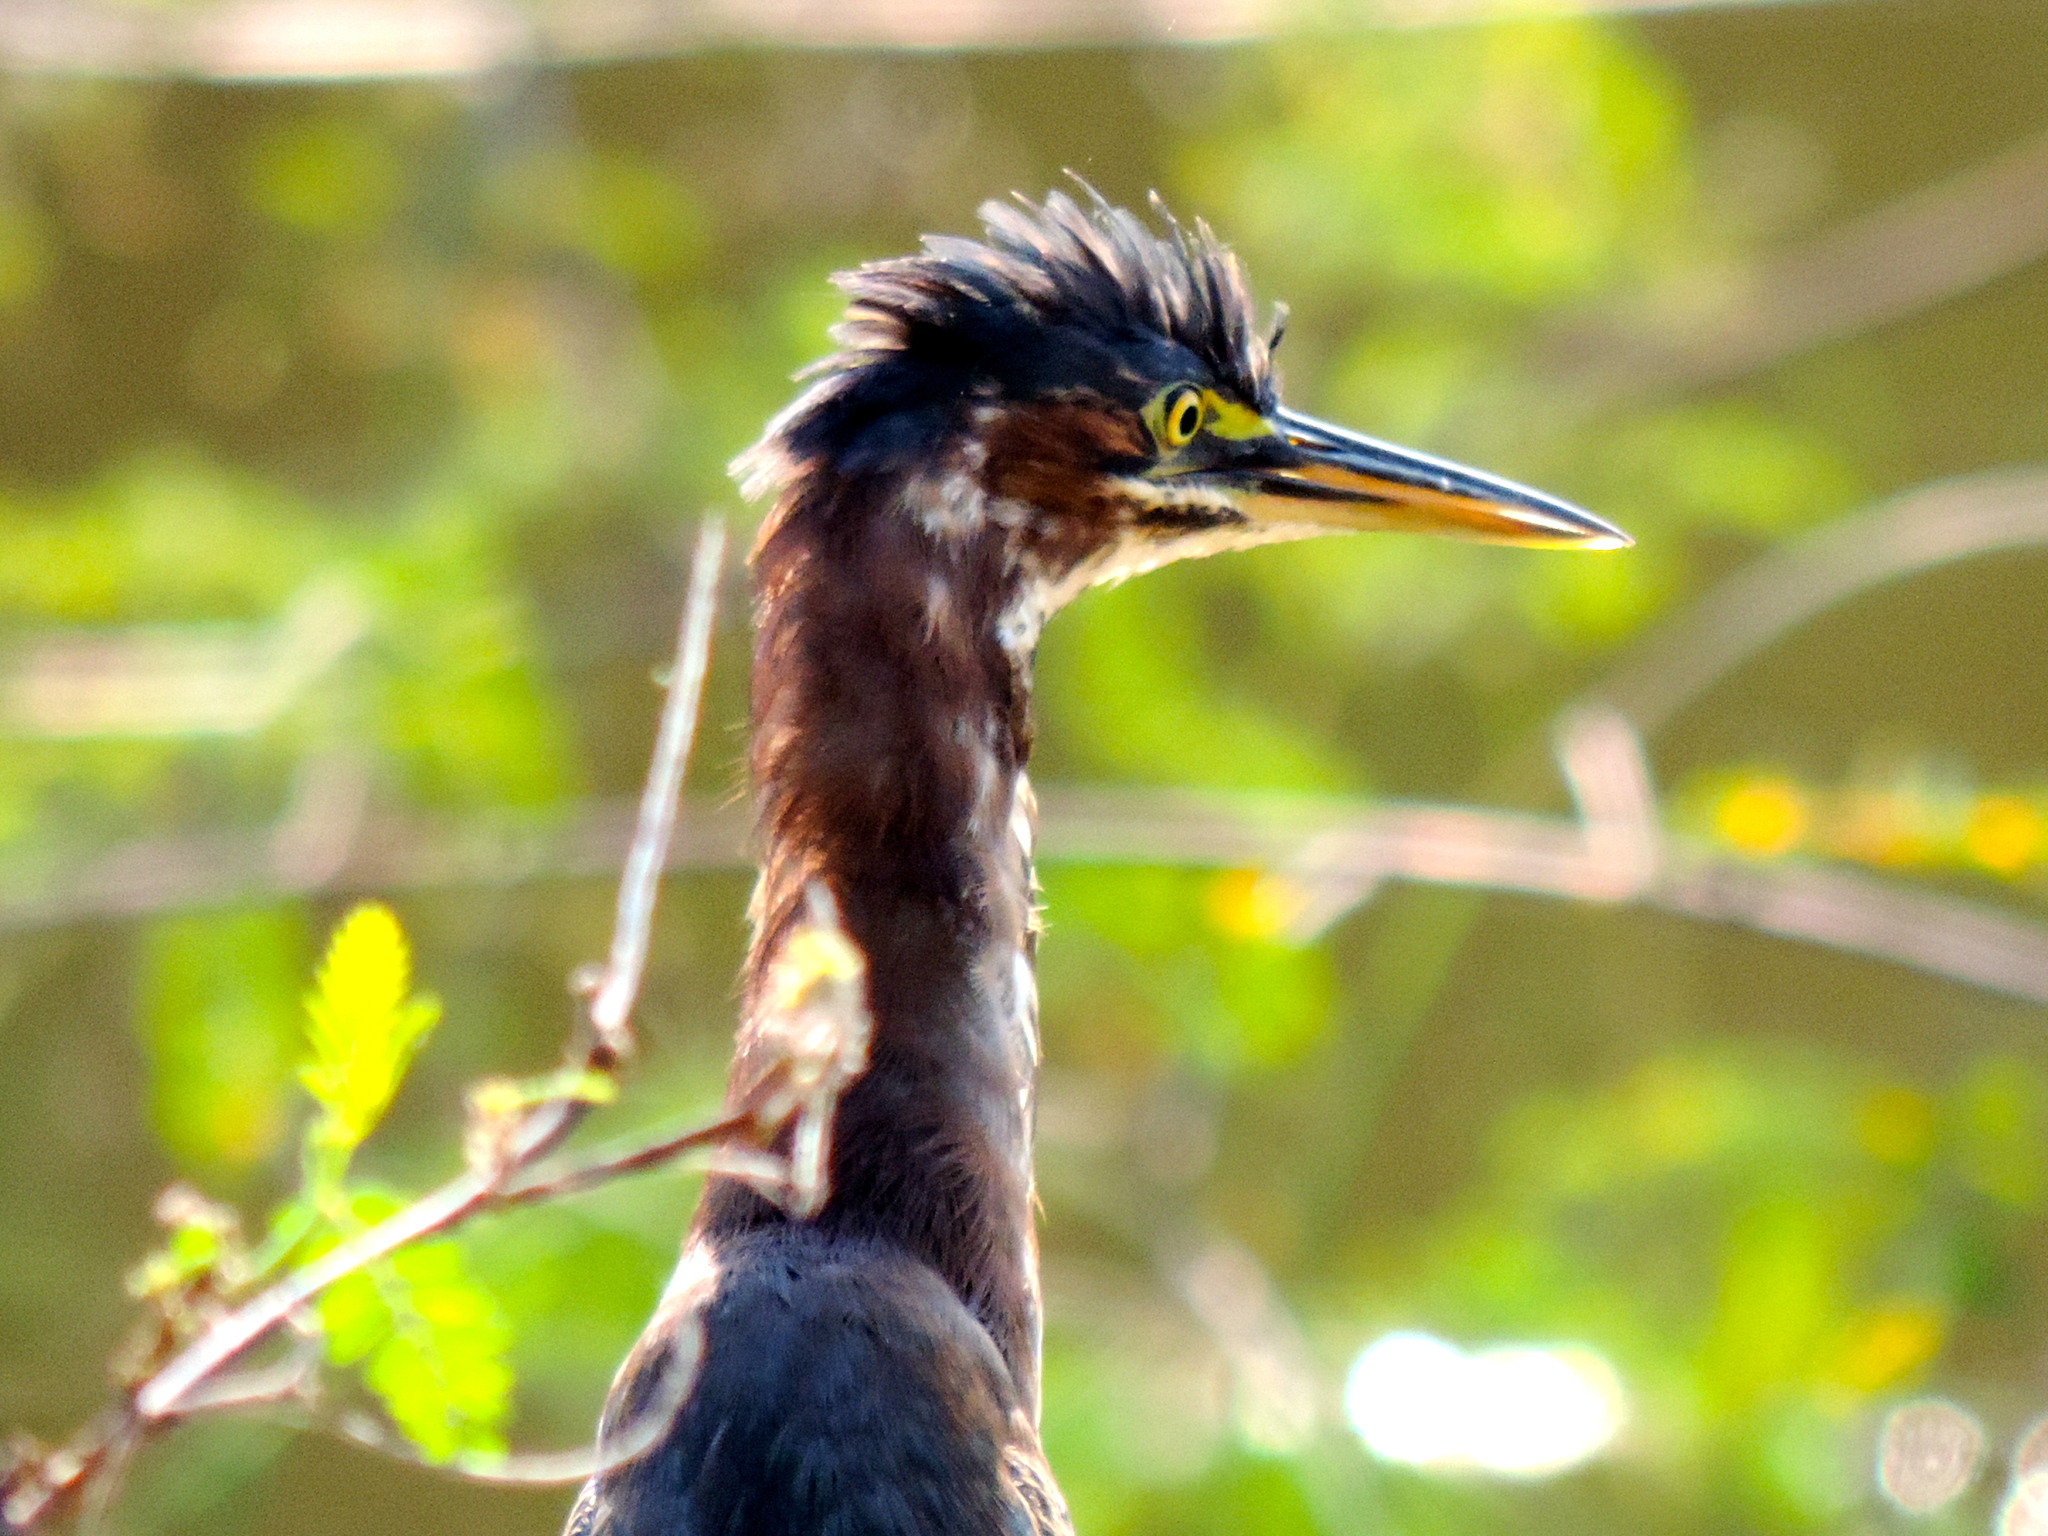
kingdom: Animalia
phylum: Chordata
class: Aves
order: Pelecaniformes
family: Ardeidae
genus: Butorides
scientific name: Butorides virescens
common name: Green heron
